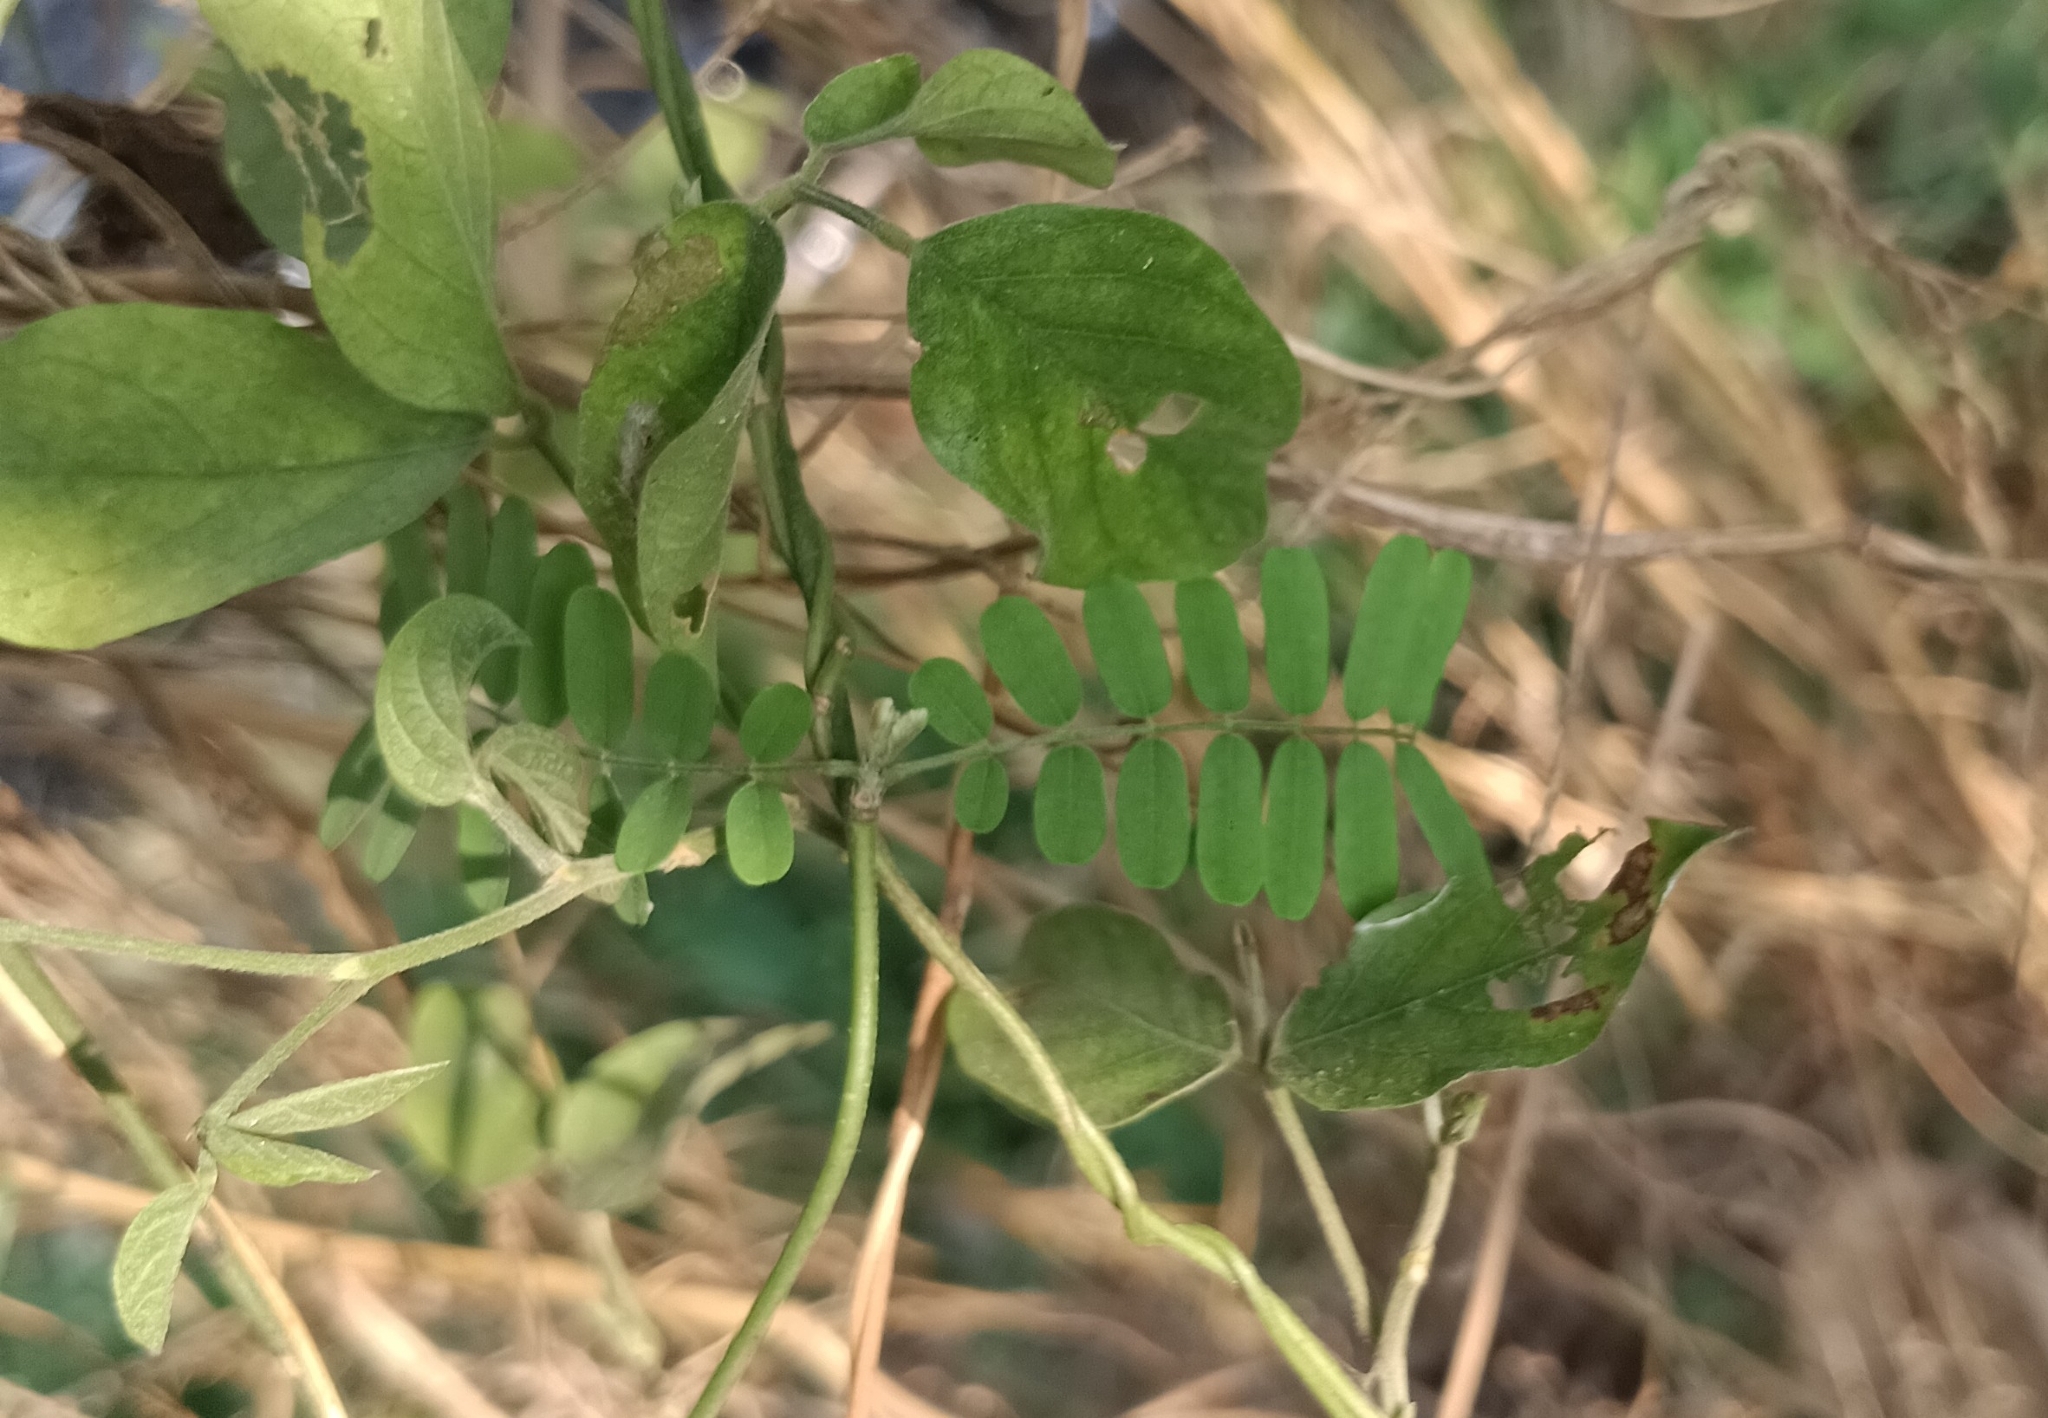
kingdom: Plantae
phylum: Tracheophyta
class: Magnoliopsida
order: Fabales
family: Fabaceae
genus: Abrus
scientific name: Abrus precatorius
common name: Rosarypea
